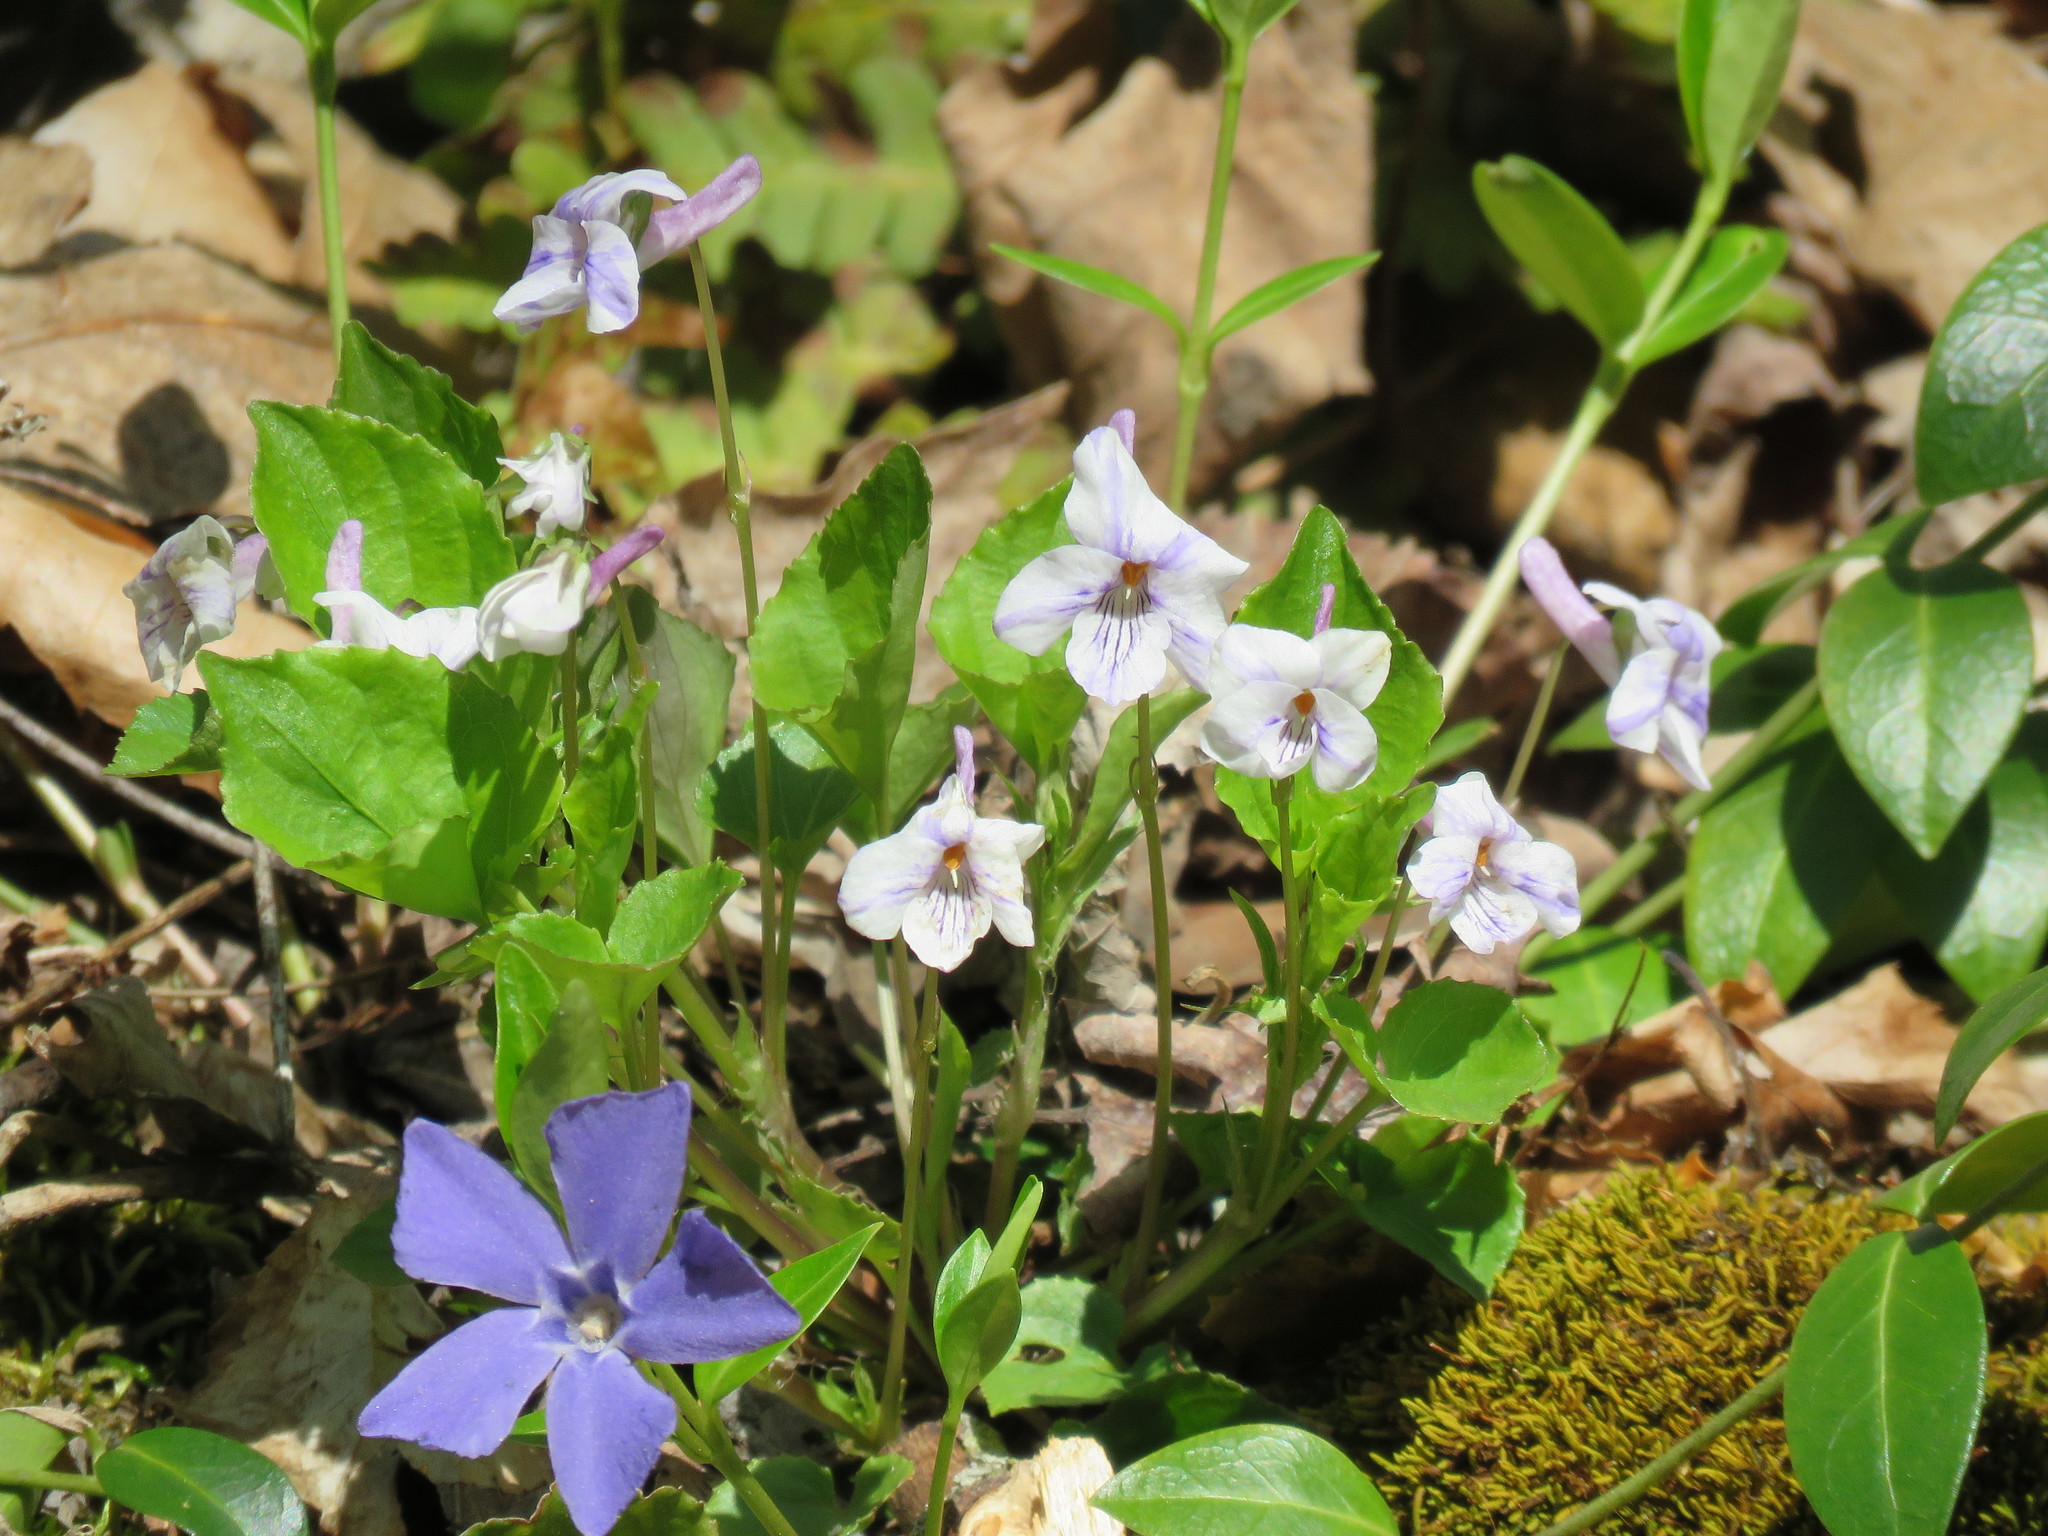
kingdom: Plantae
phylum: Tracheophyta
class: Magnoliopsida
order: Malpighiales
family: Violaceae
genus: Viola
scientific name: Viola rostrata
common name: Long-spur violet
